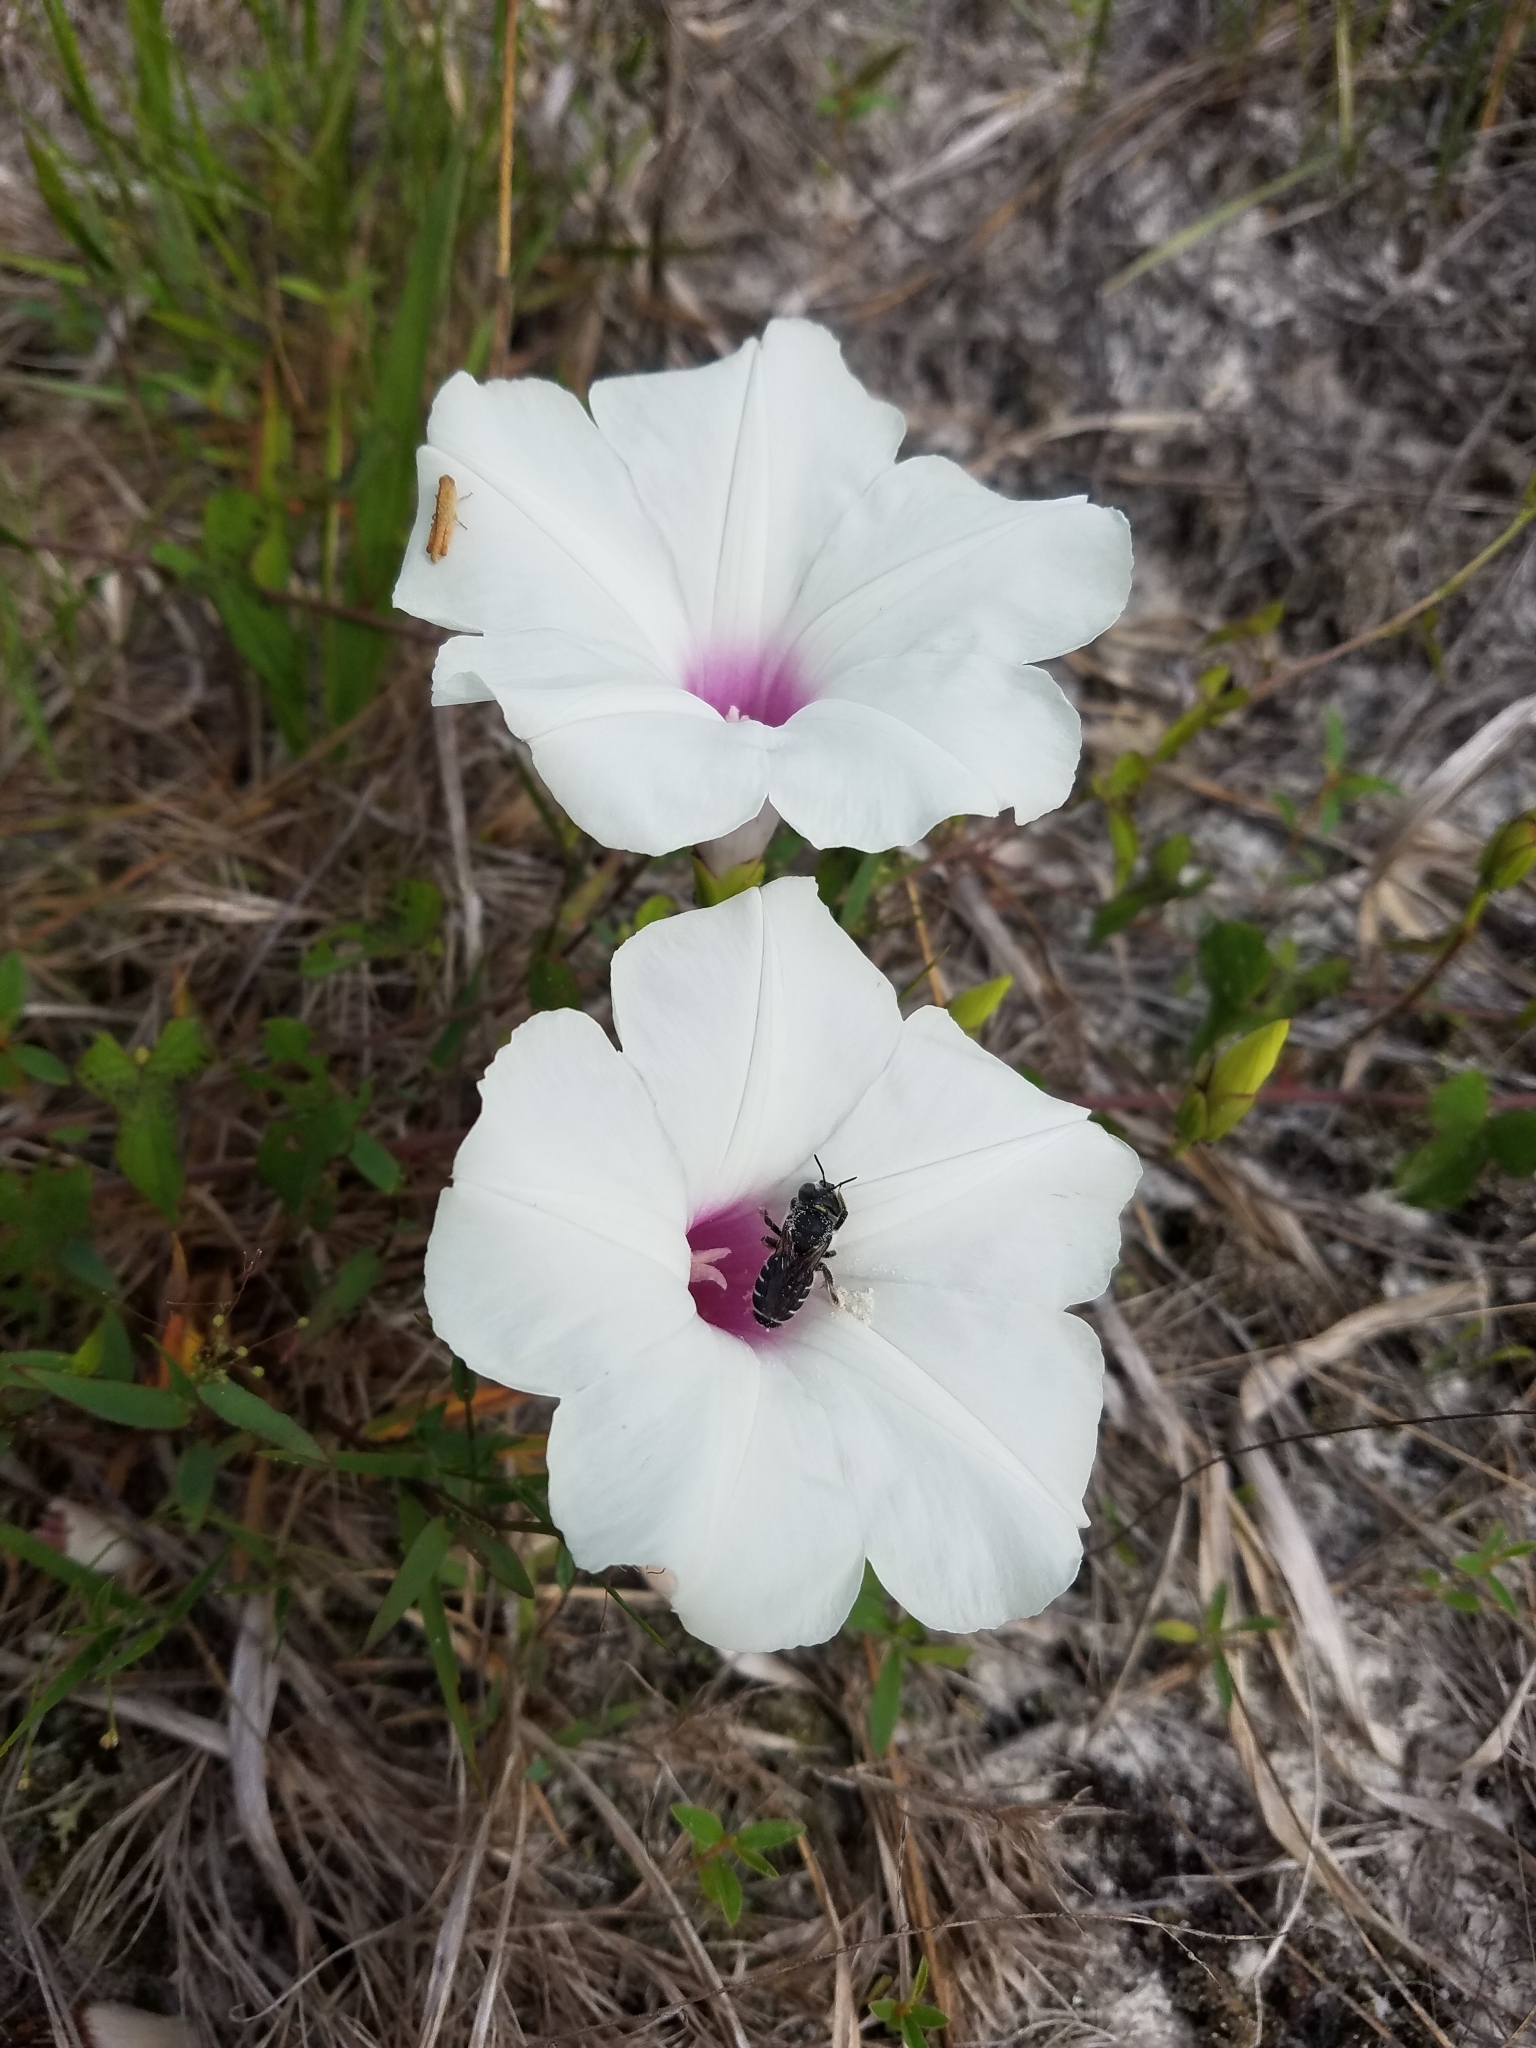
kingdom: Plantae
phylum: Tracheophyta
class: Magnoliopsida
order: Solanales
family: Convolvulaceae
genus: Ipomoea
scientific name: Ipomoea pandurata
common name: Man-of-the-earth
